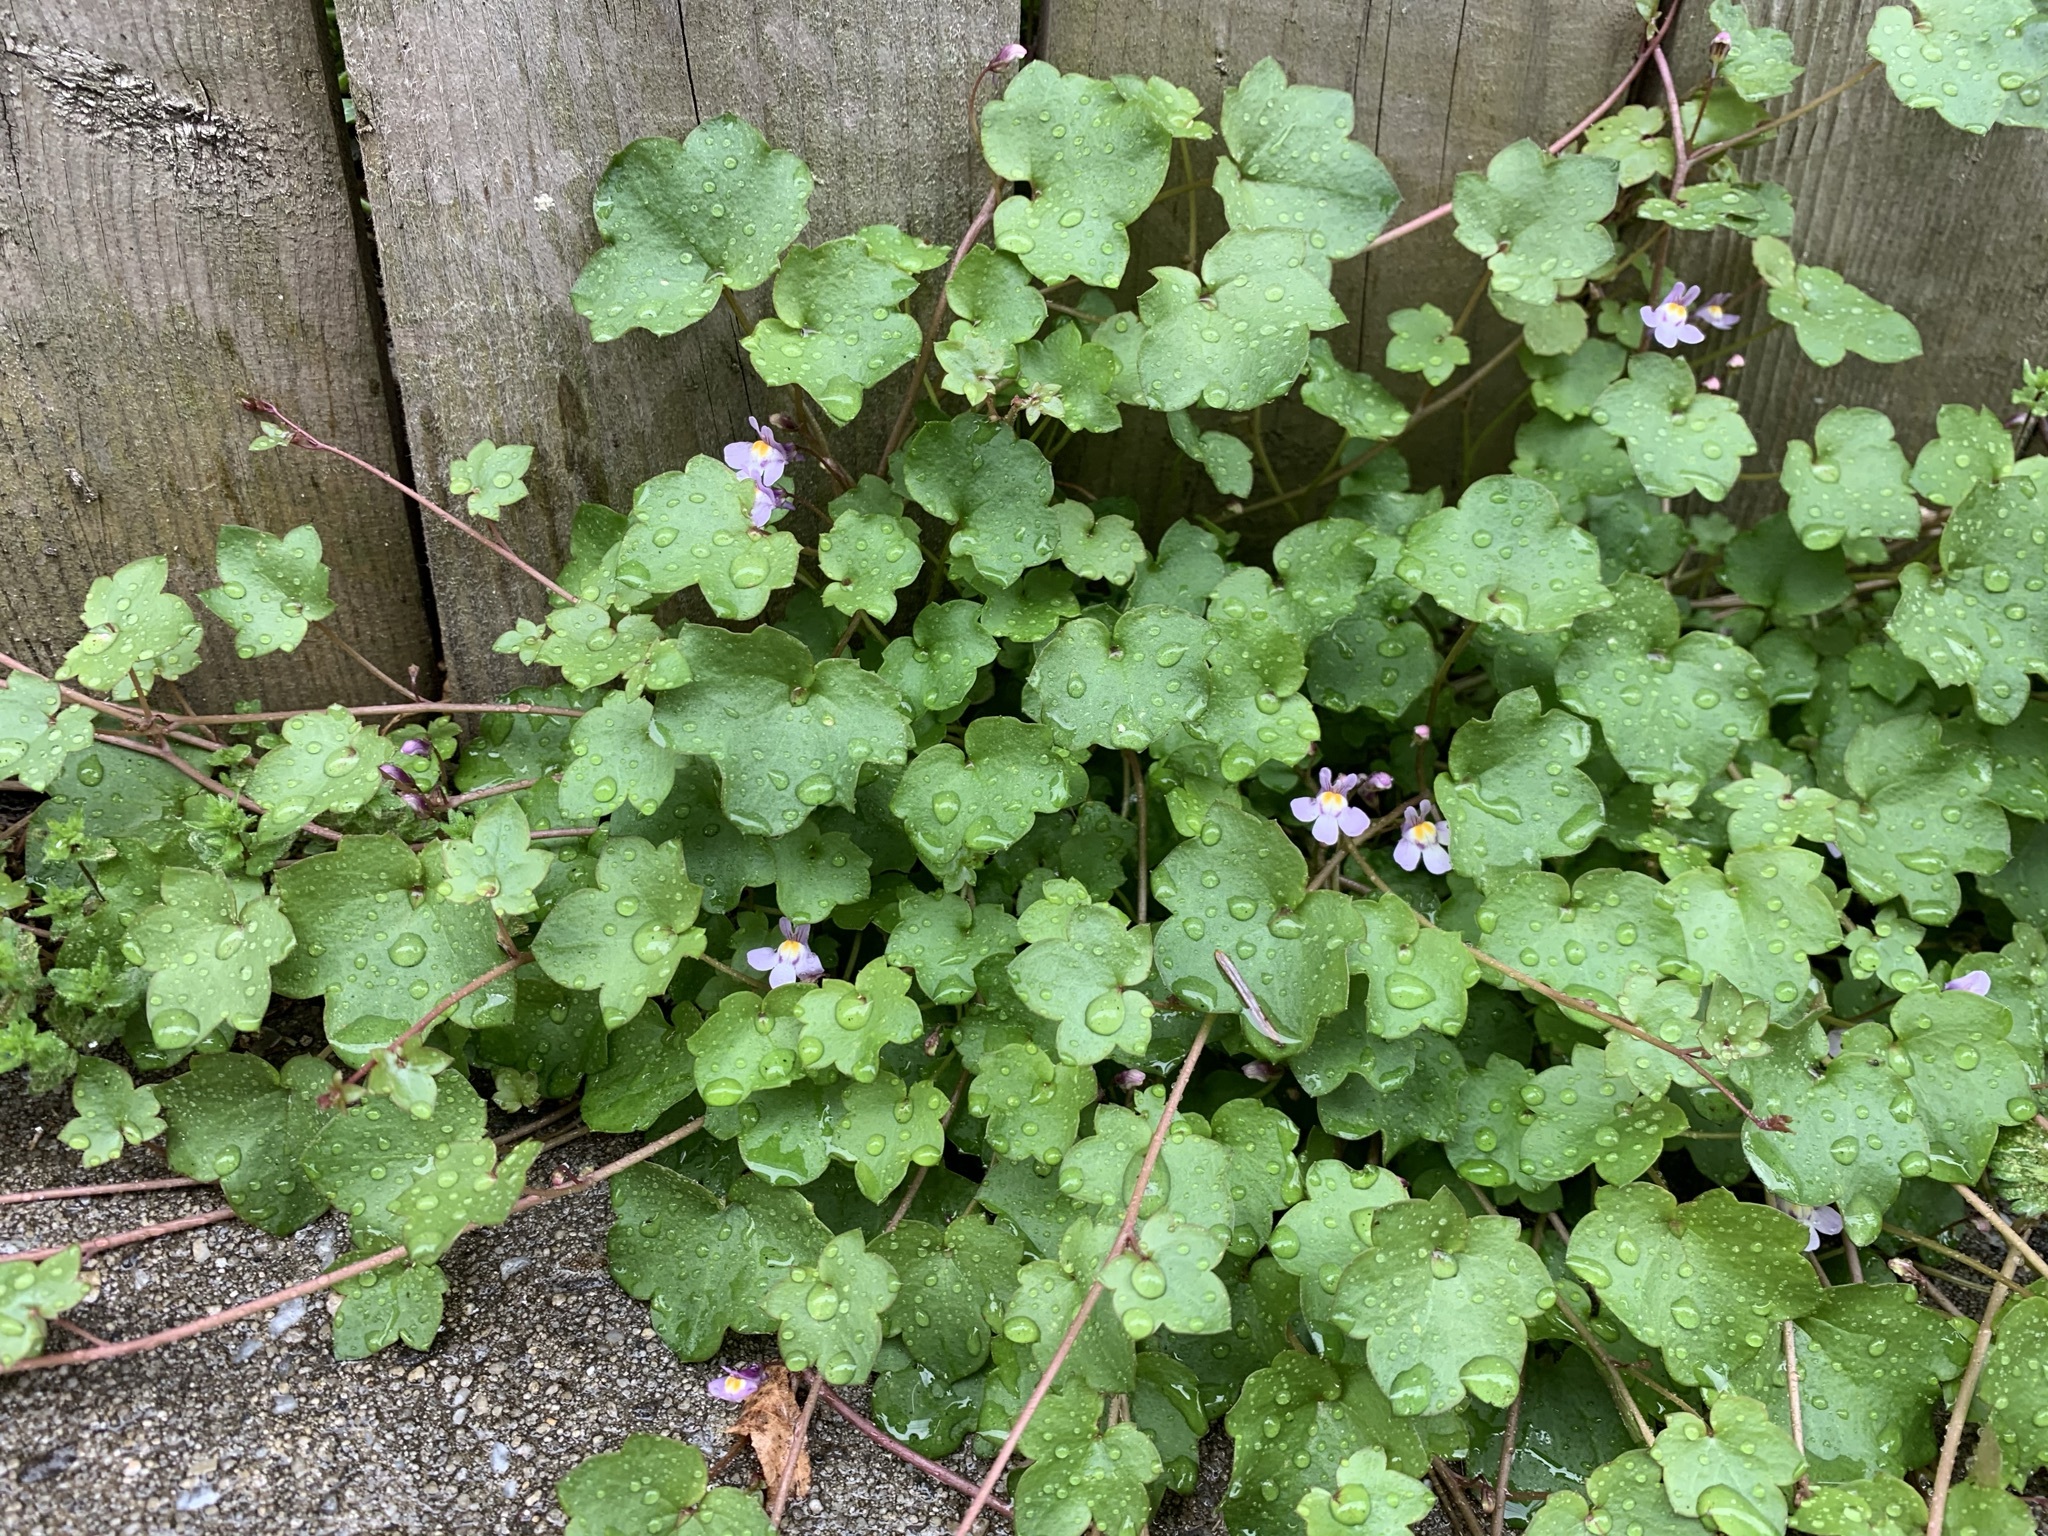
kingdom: Plantae
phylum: Tracheophyta
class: Magnoliopsida
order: Lamiales
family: Plantaginaceae
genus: Cymbalaria
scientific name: Cymbalaria muralis
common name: Ivy-leaved toadflax
